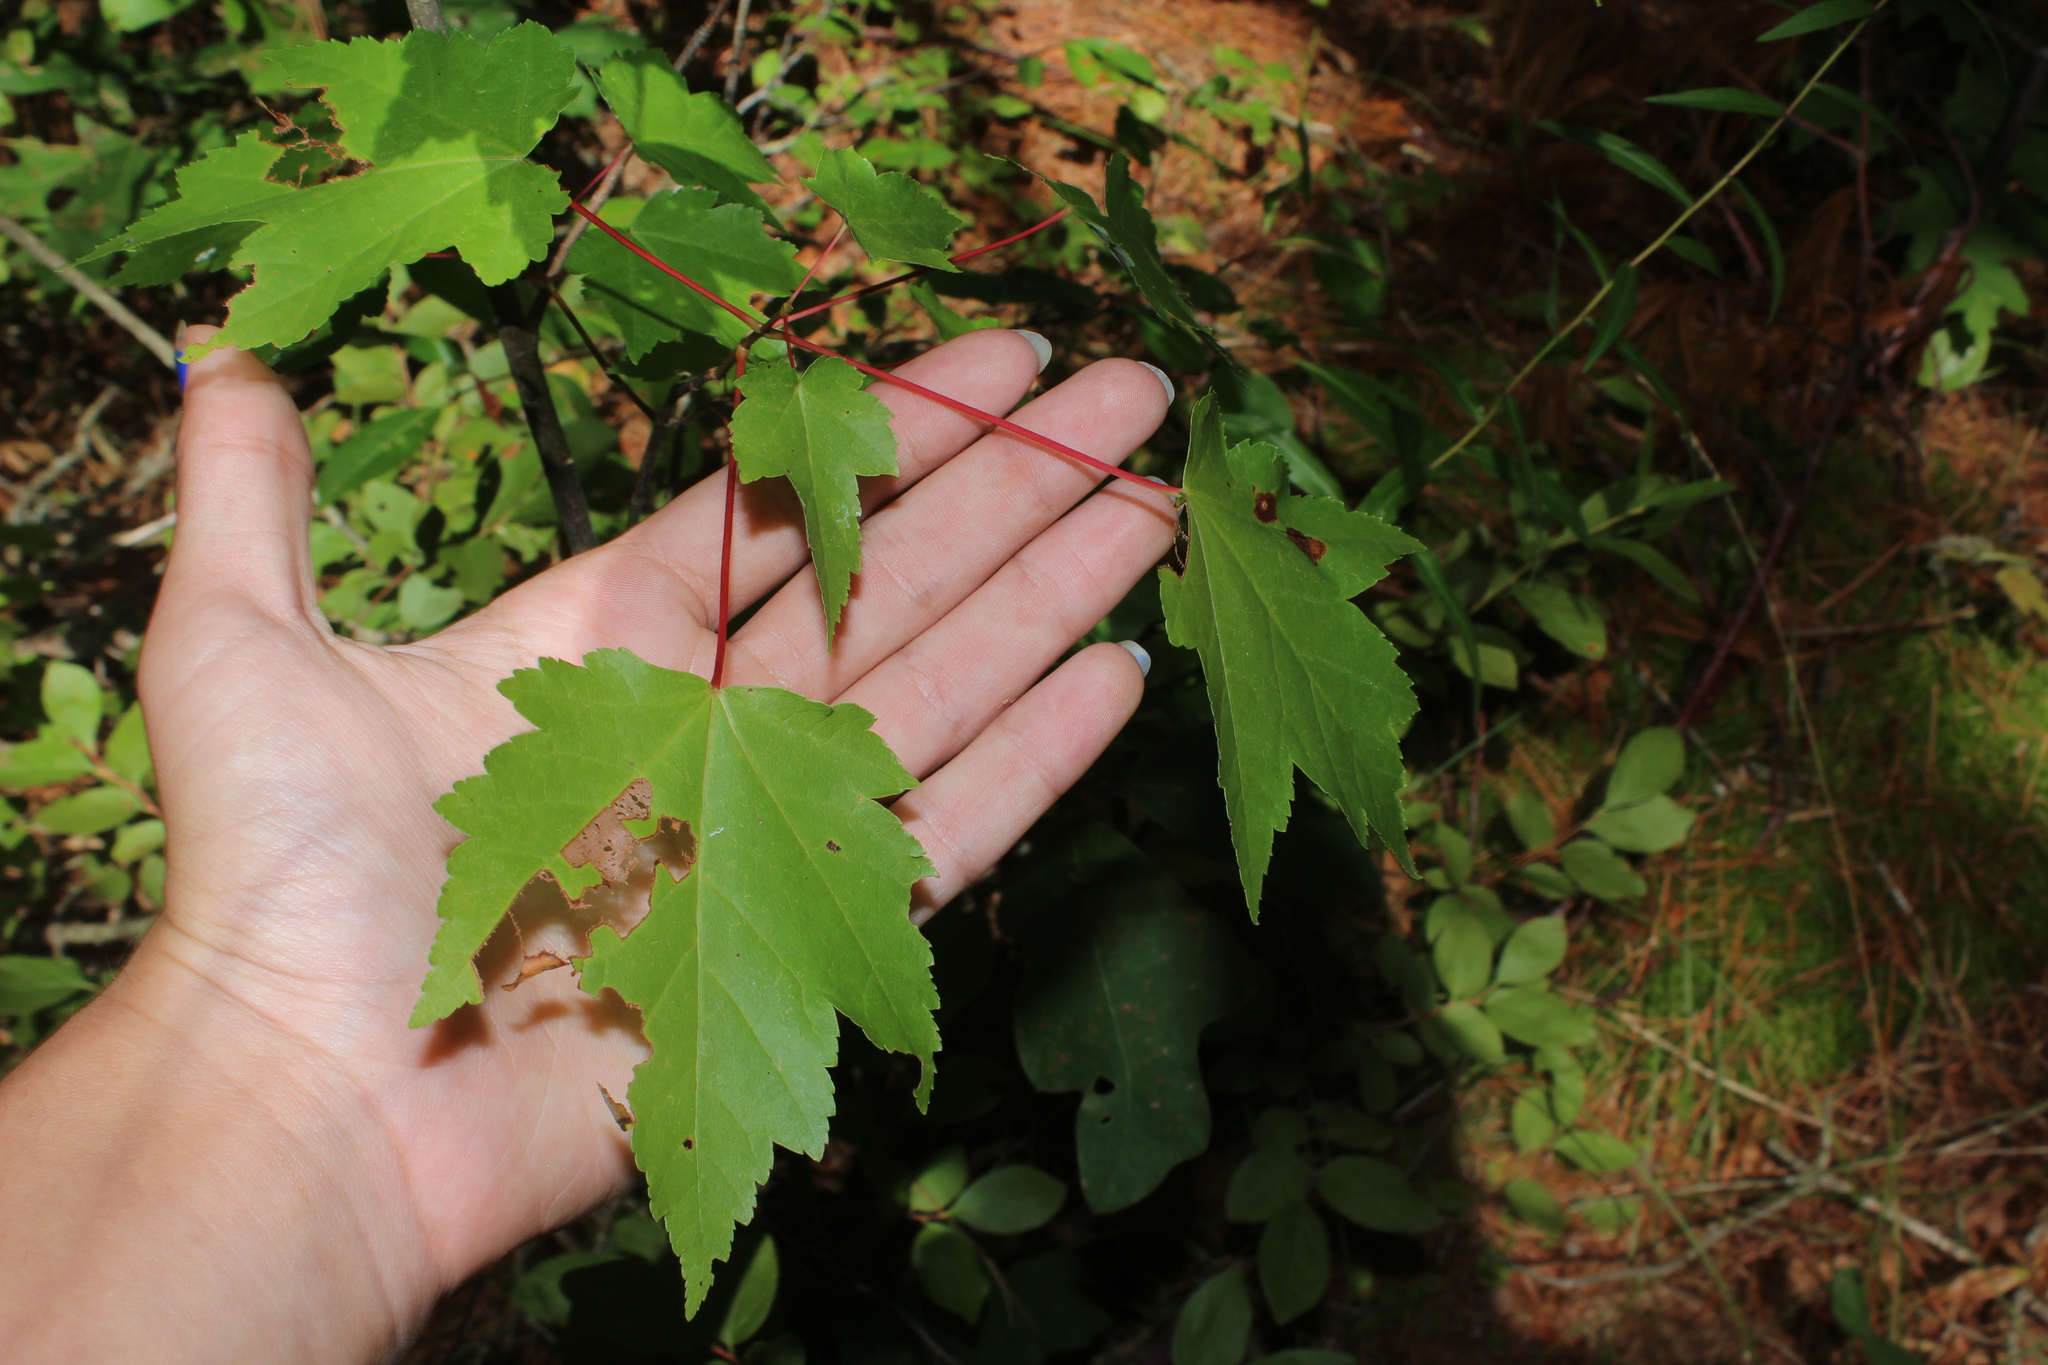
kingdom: Plantae
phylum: Tracheophyta
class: Magnoliopsida
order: Sapindales
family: Sapindaceae
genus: Acer
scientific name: Acer rubrum
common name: Red maple
